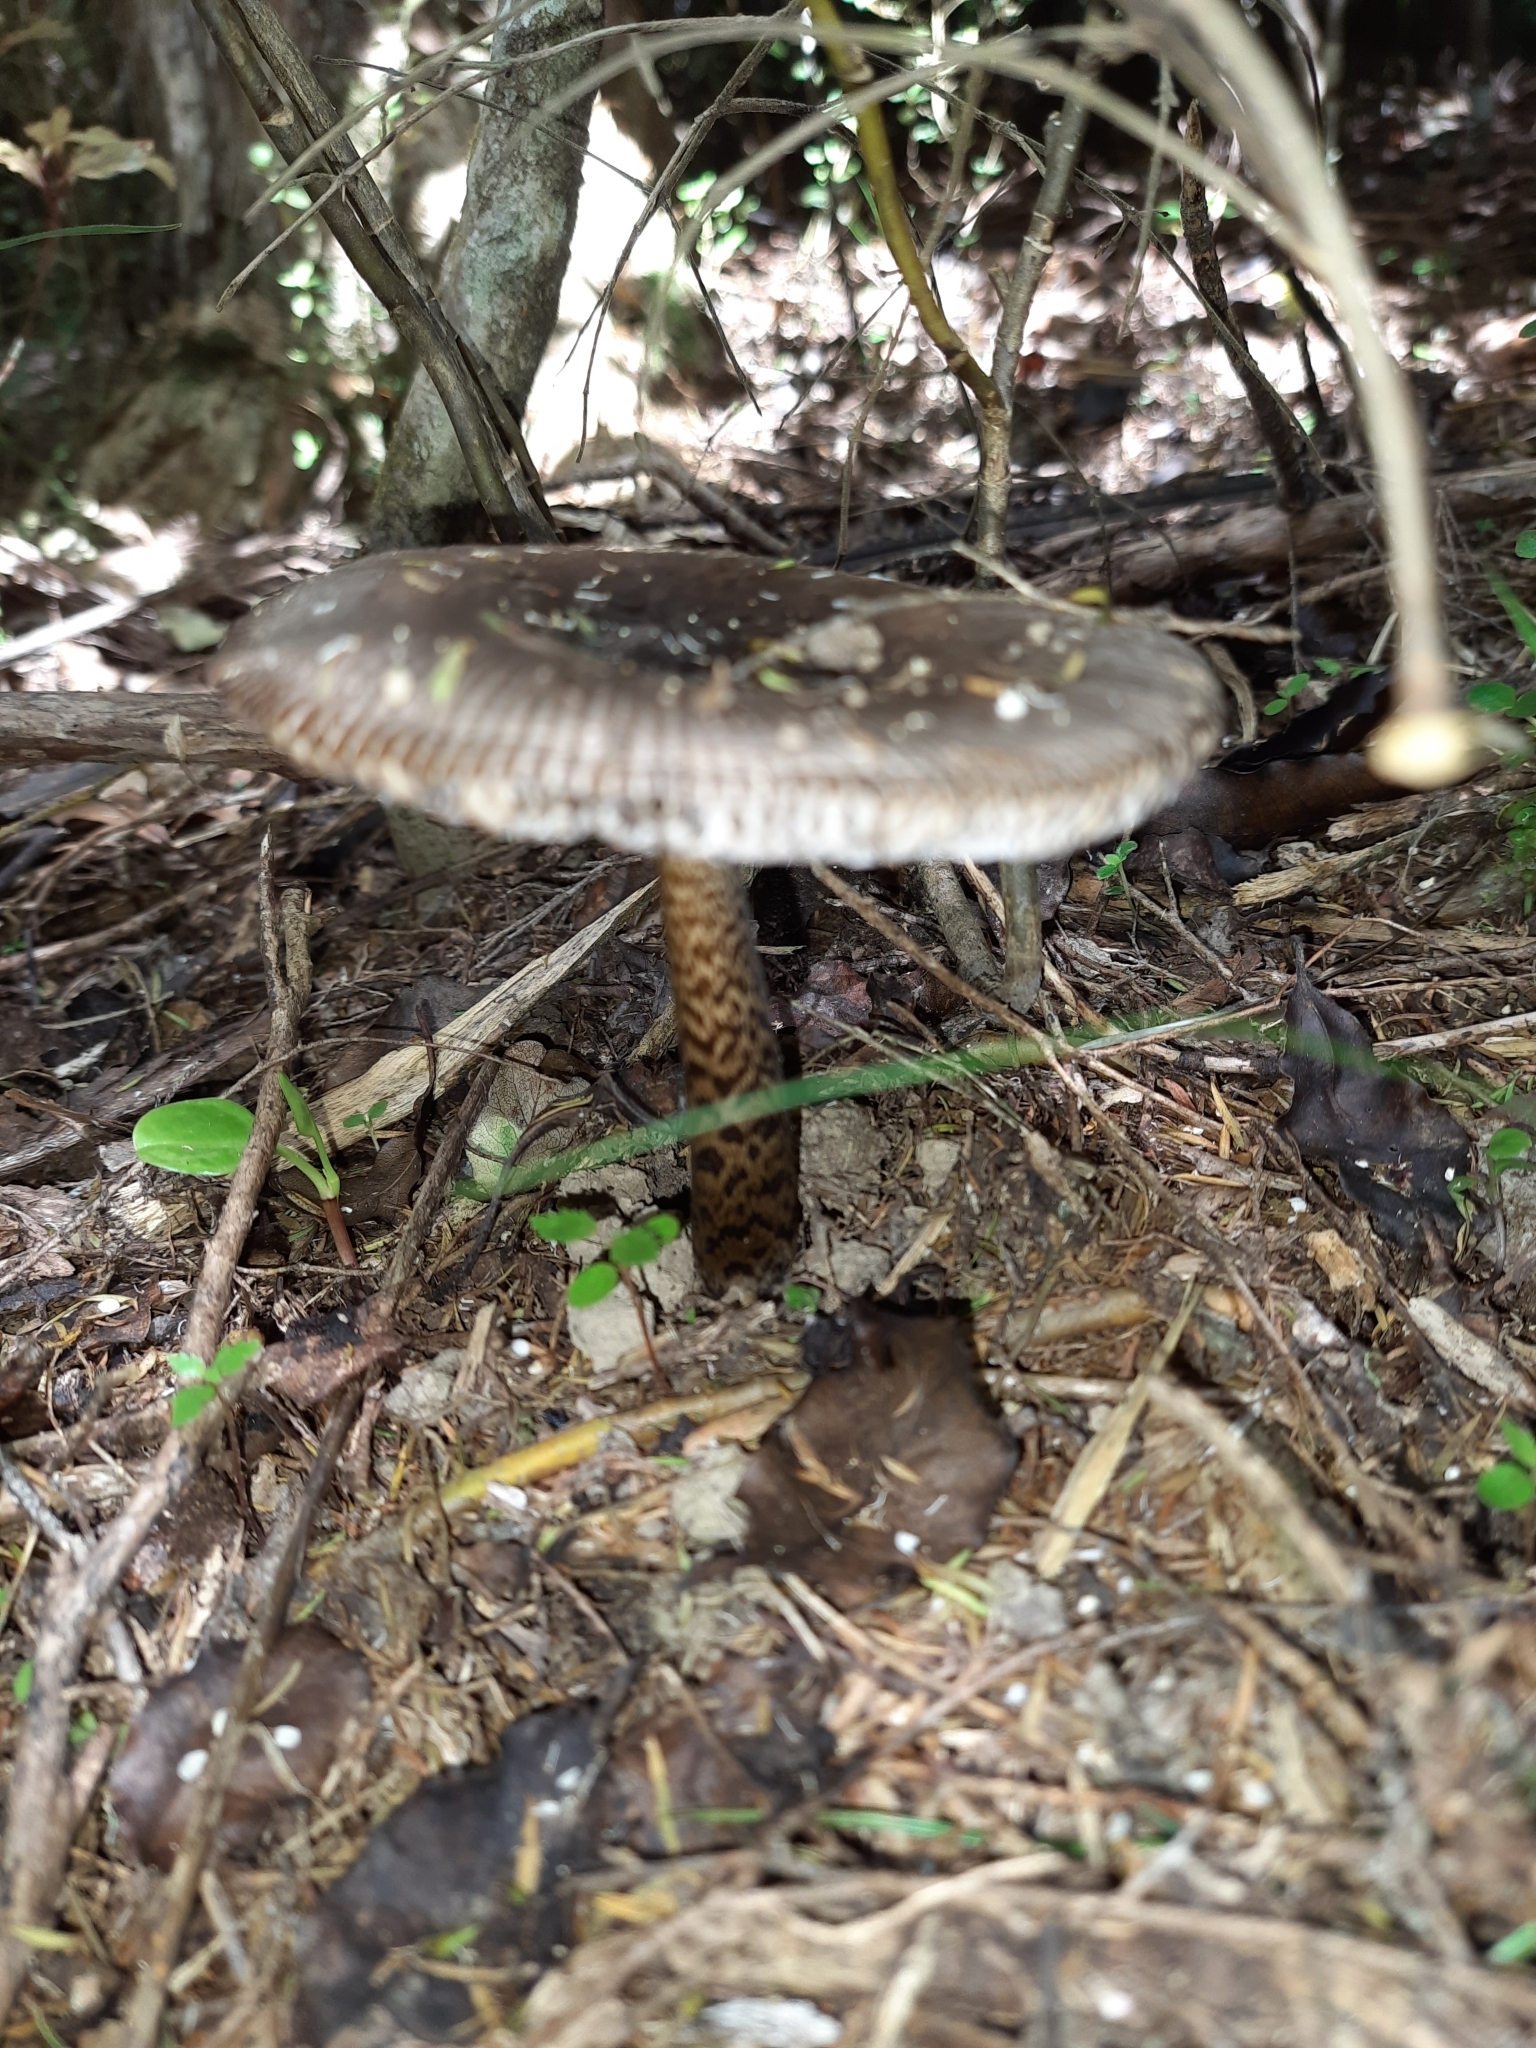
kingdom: Fungi
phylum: Basidiomycota
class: Agaricomycetes
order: Agaricales
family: Amanitaceae
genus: Amanita
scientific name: Amanita pekeoides
